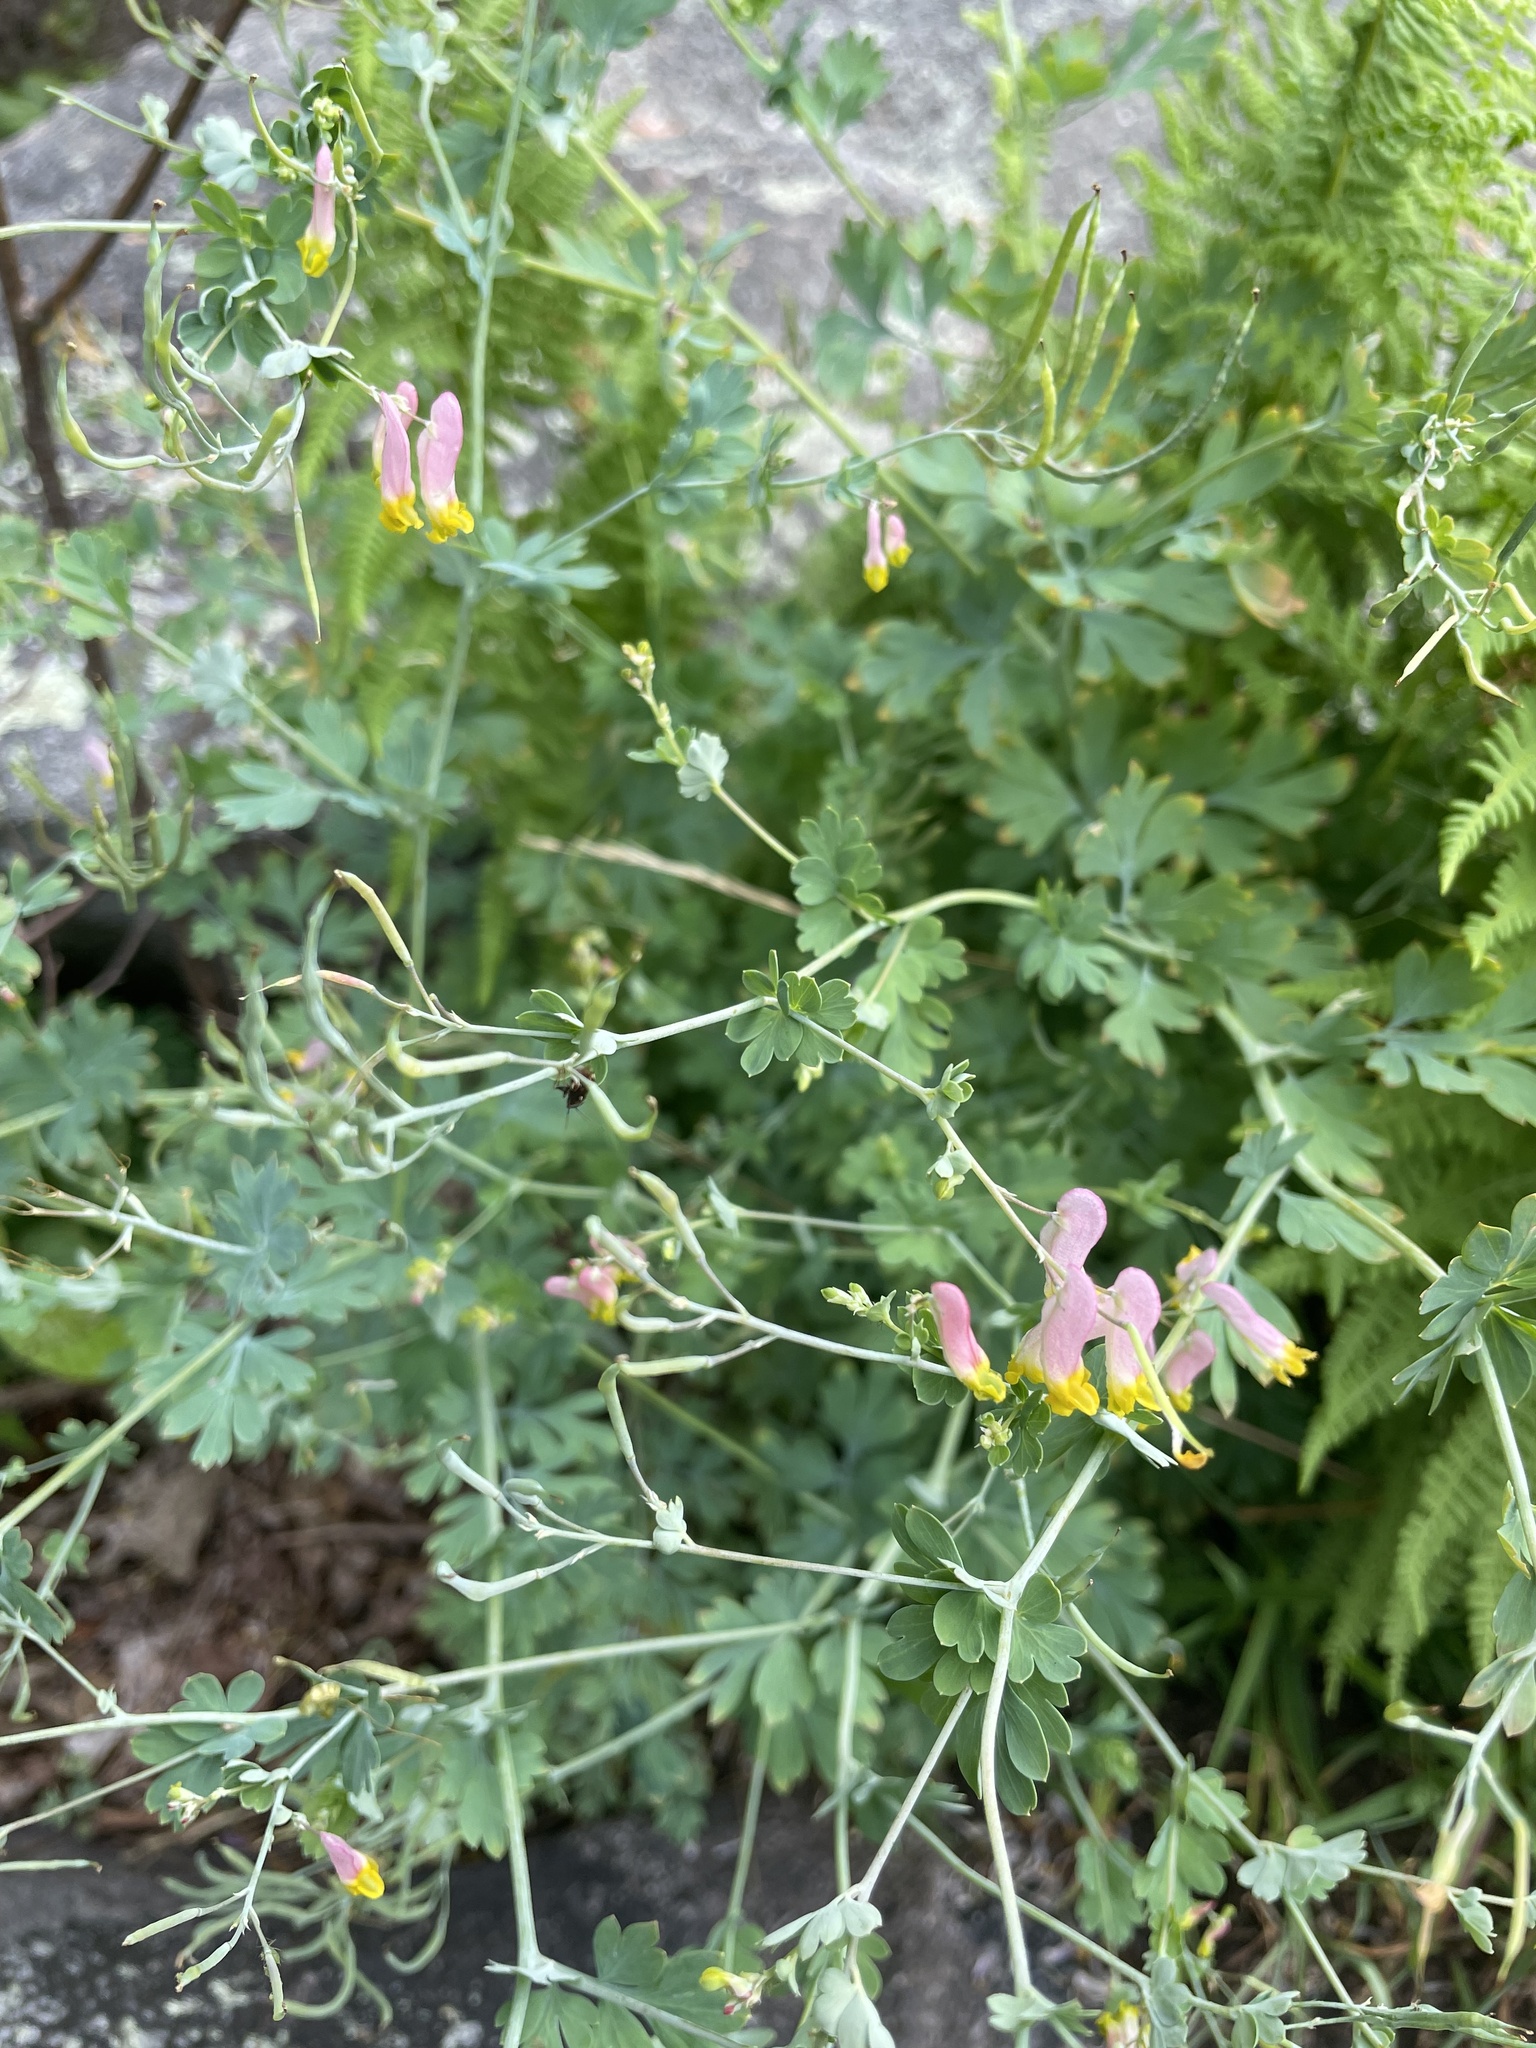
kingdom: Plantae
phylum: Tracheophyta
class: Magnoliopsida
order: Ranunculales
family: Papaveraceae
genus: Capnoides
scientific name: Capnoides sempervirens
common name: Rock harlequin
